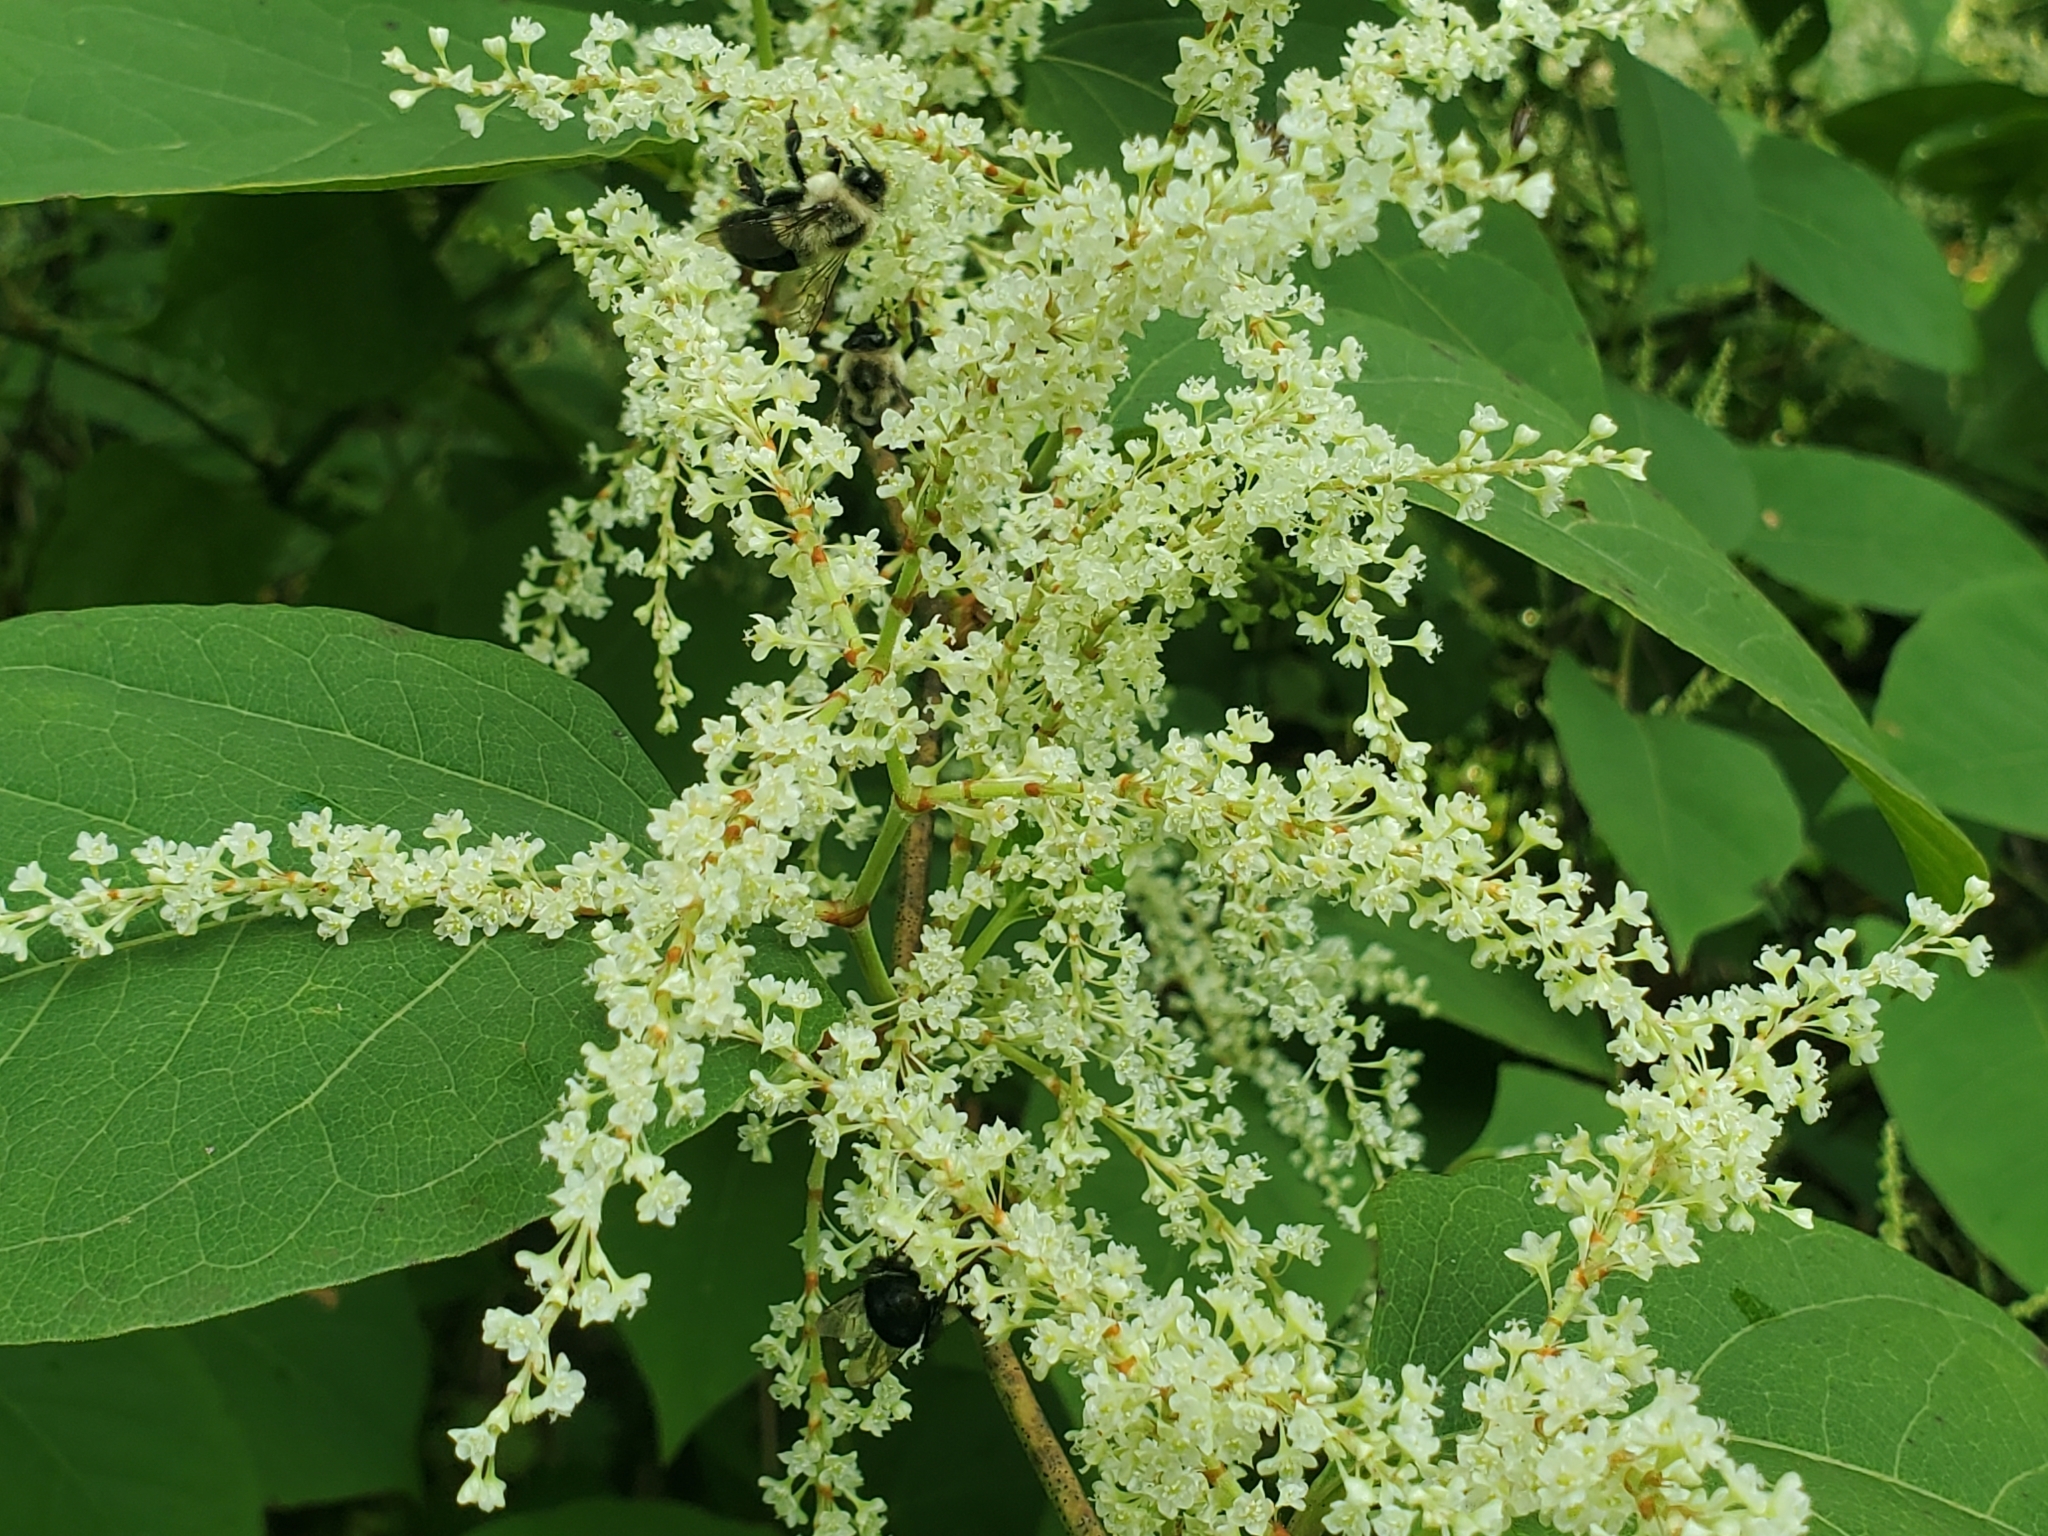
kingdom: Plantae
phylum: Tracheophyta
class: Magnoliopsida
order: Caryophyllales
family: Polygonaceae
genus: Reynoutria
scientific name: Reynoutria japonica
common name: Japanese knotweed
